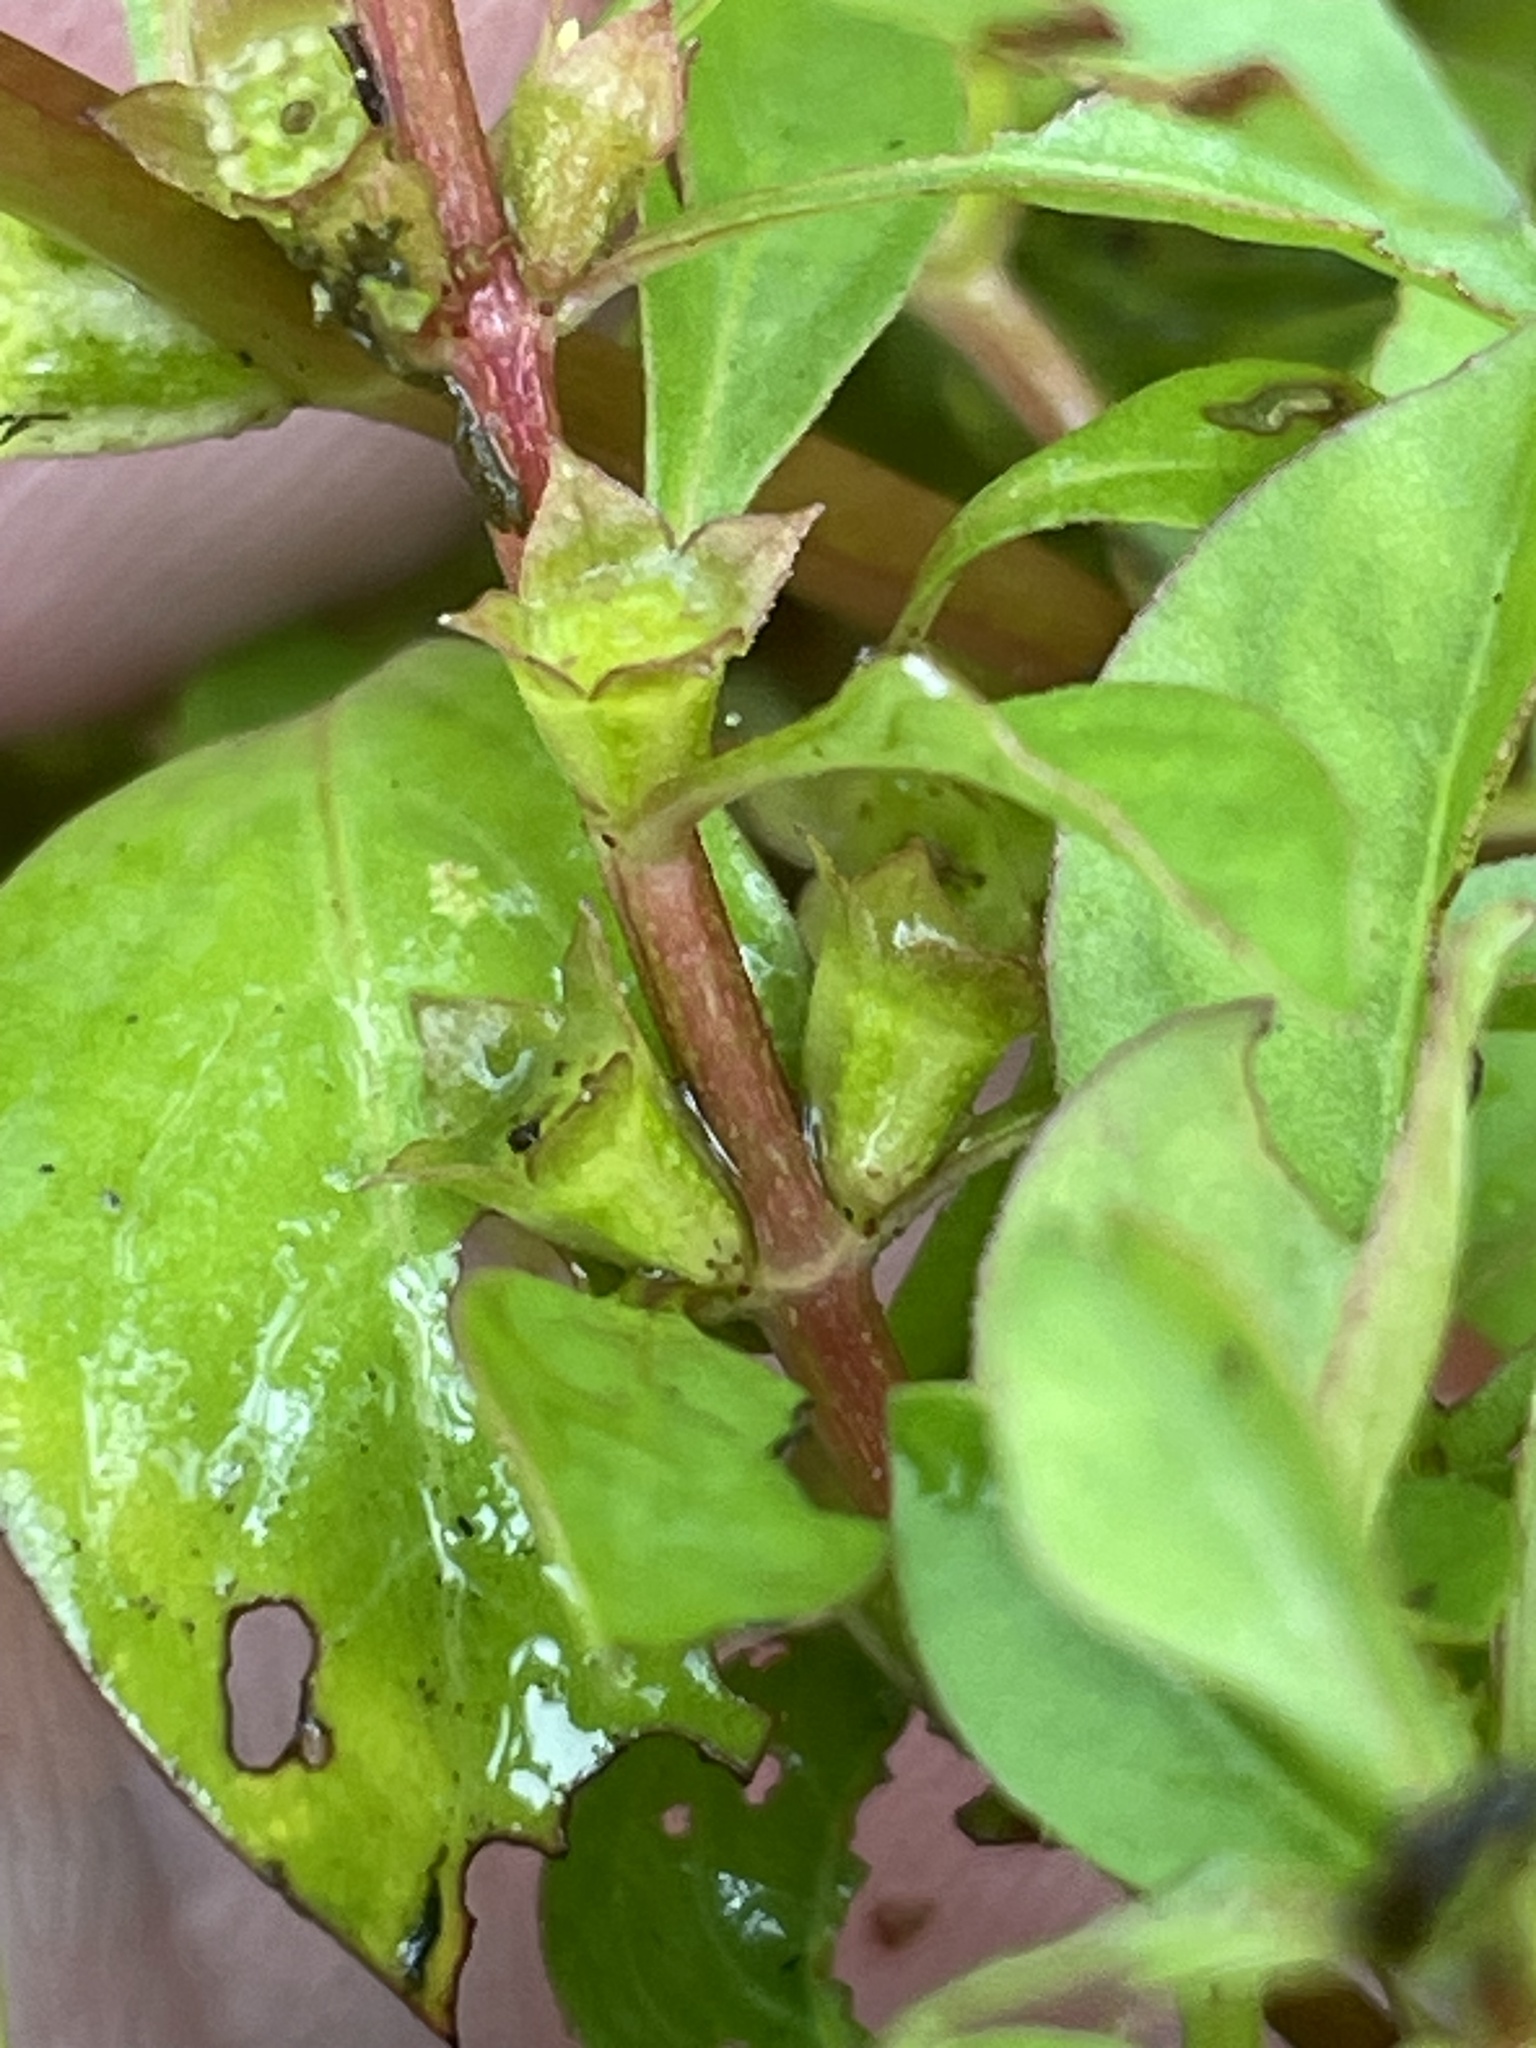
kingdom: Plantae
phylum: Tracheophyta
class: Magnoliopsida
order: Myrtales
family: Onagraceae
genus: Ludwigia
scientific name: Ludwigia palustris
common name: Hampshire-purslane
